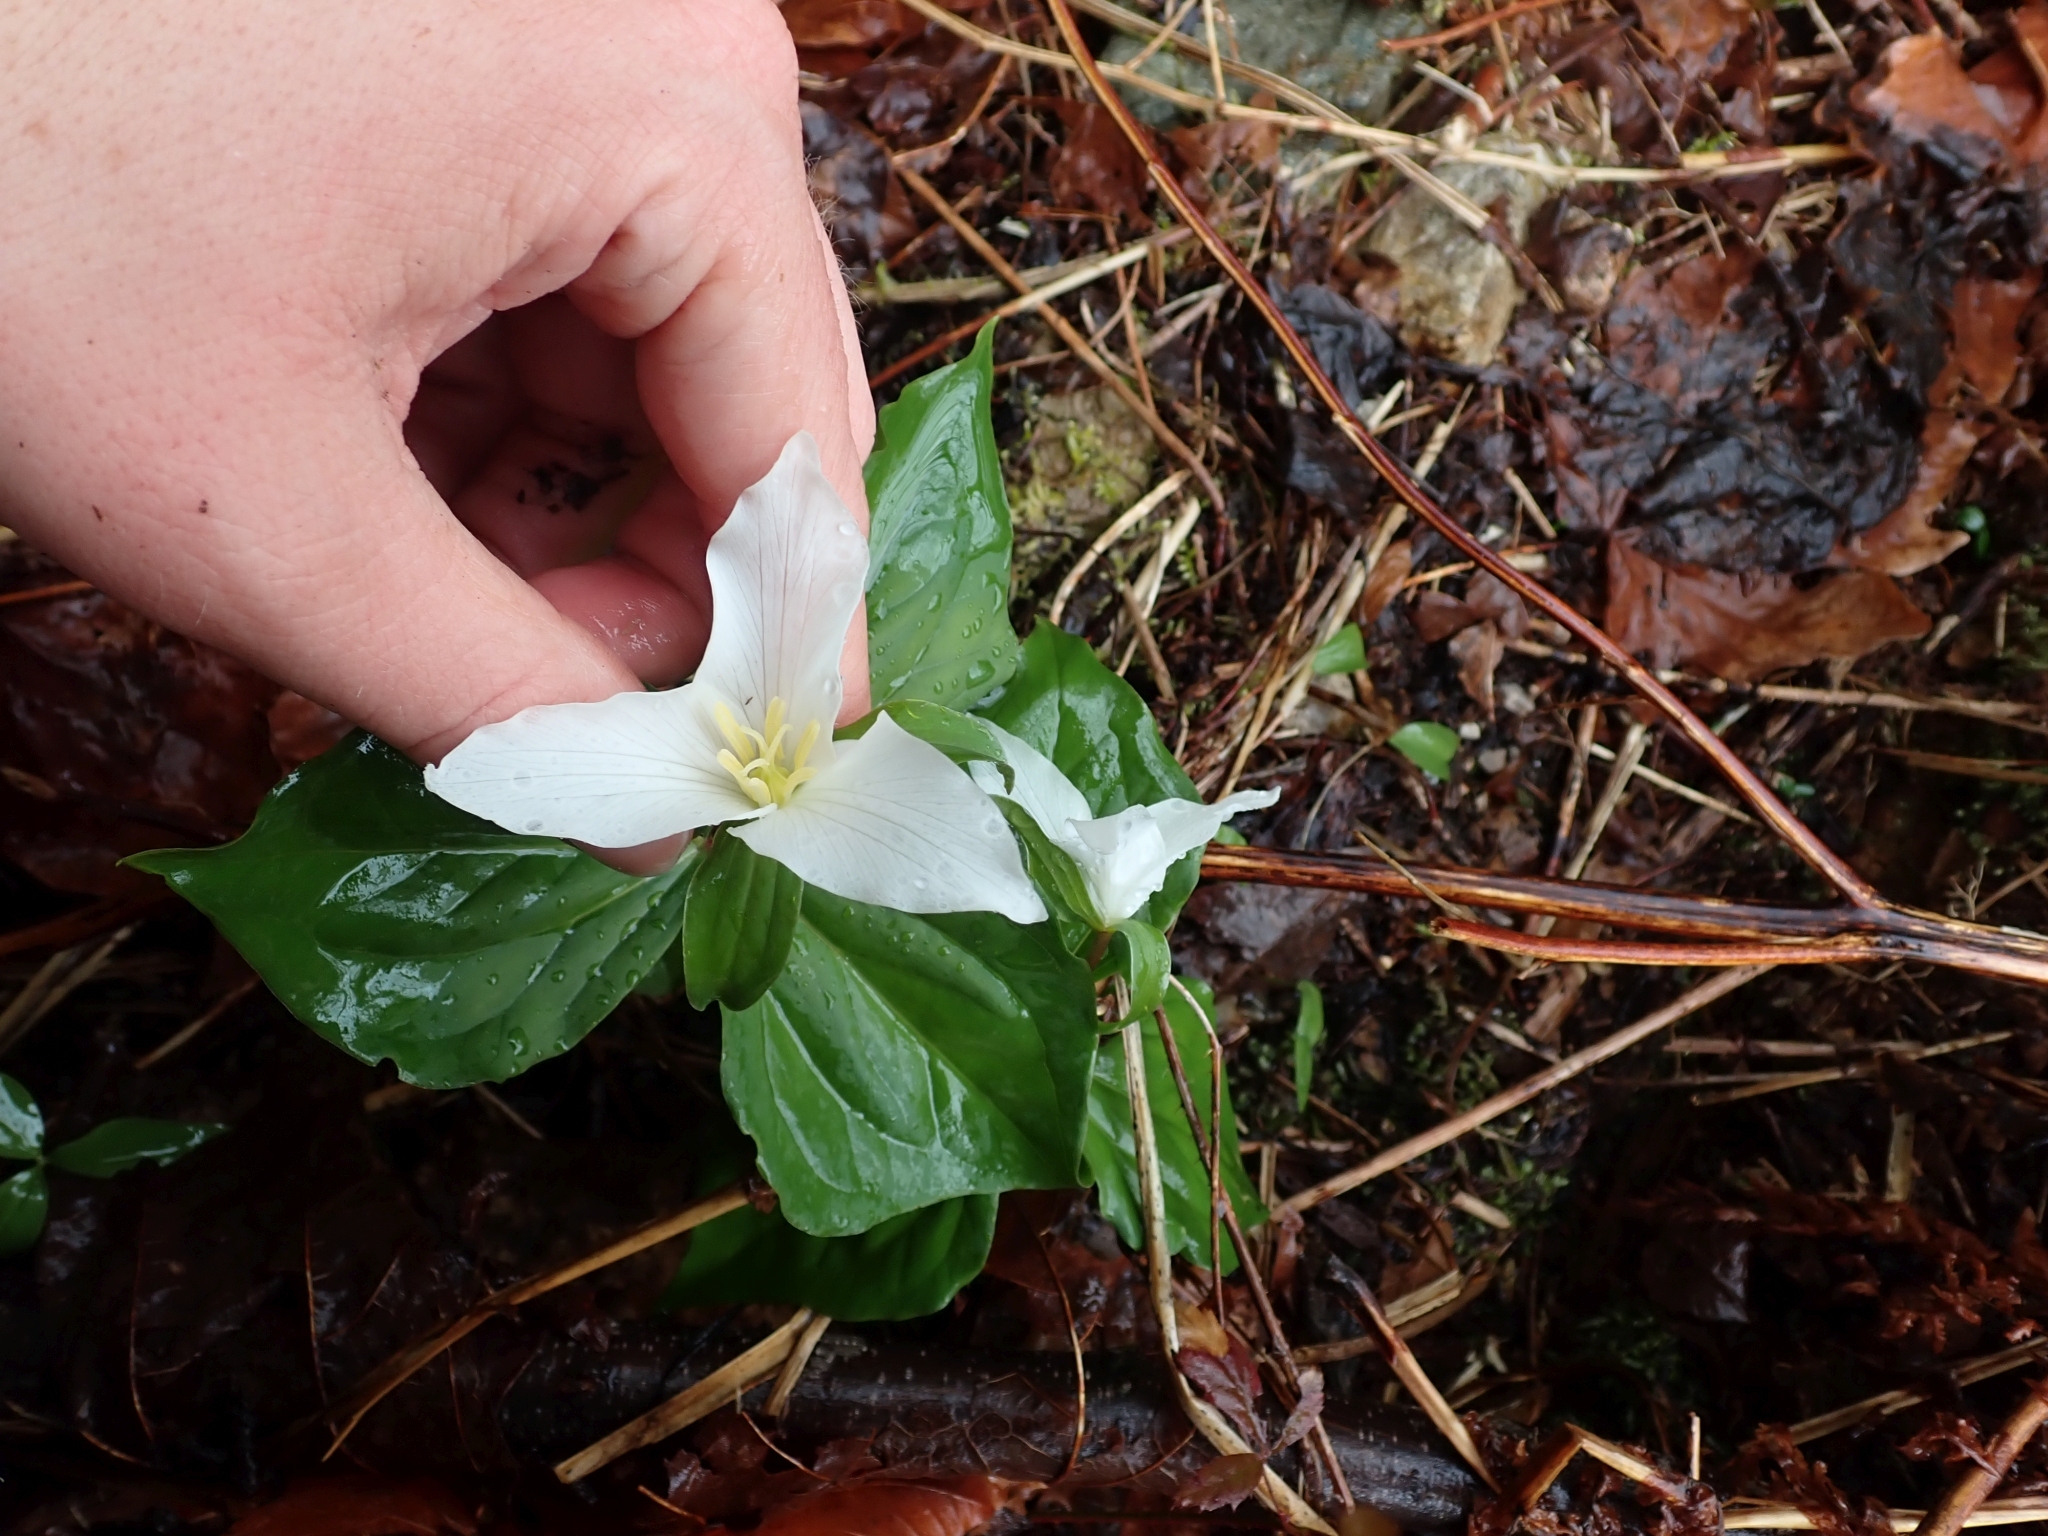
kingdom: Plantae
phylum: Tracheophyta
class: Liliopsida
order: Liliales
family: Melanthiaceae
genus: Trillium
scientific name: Trillium ovatum
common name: Pacific trillium
